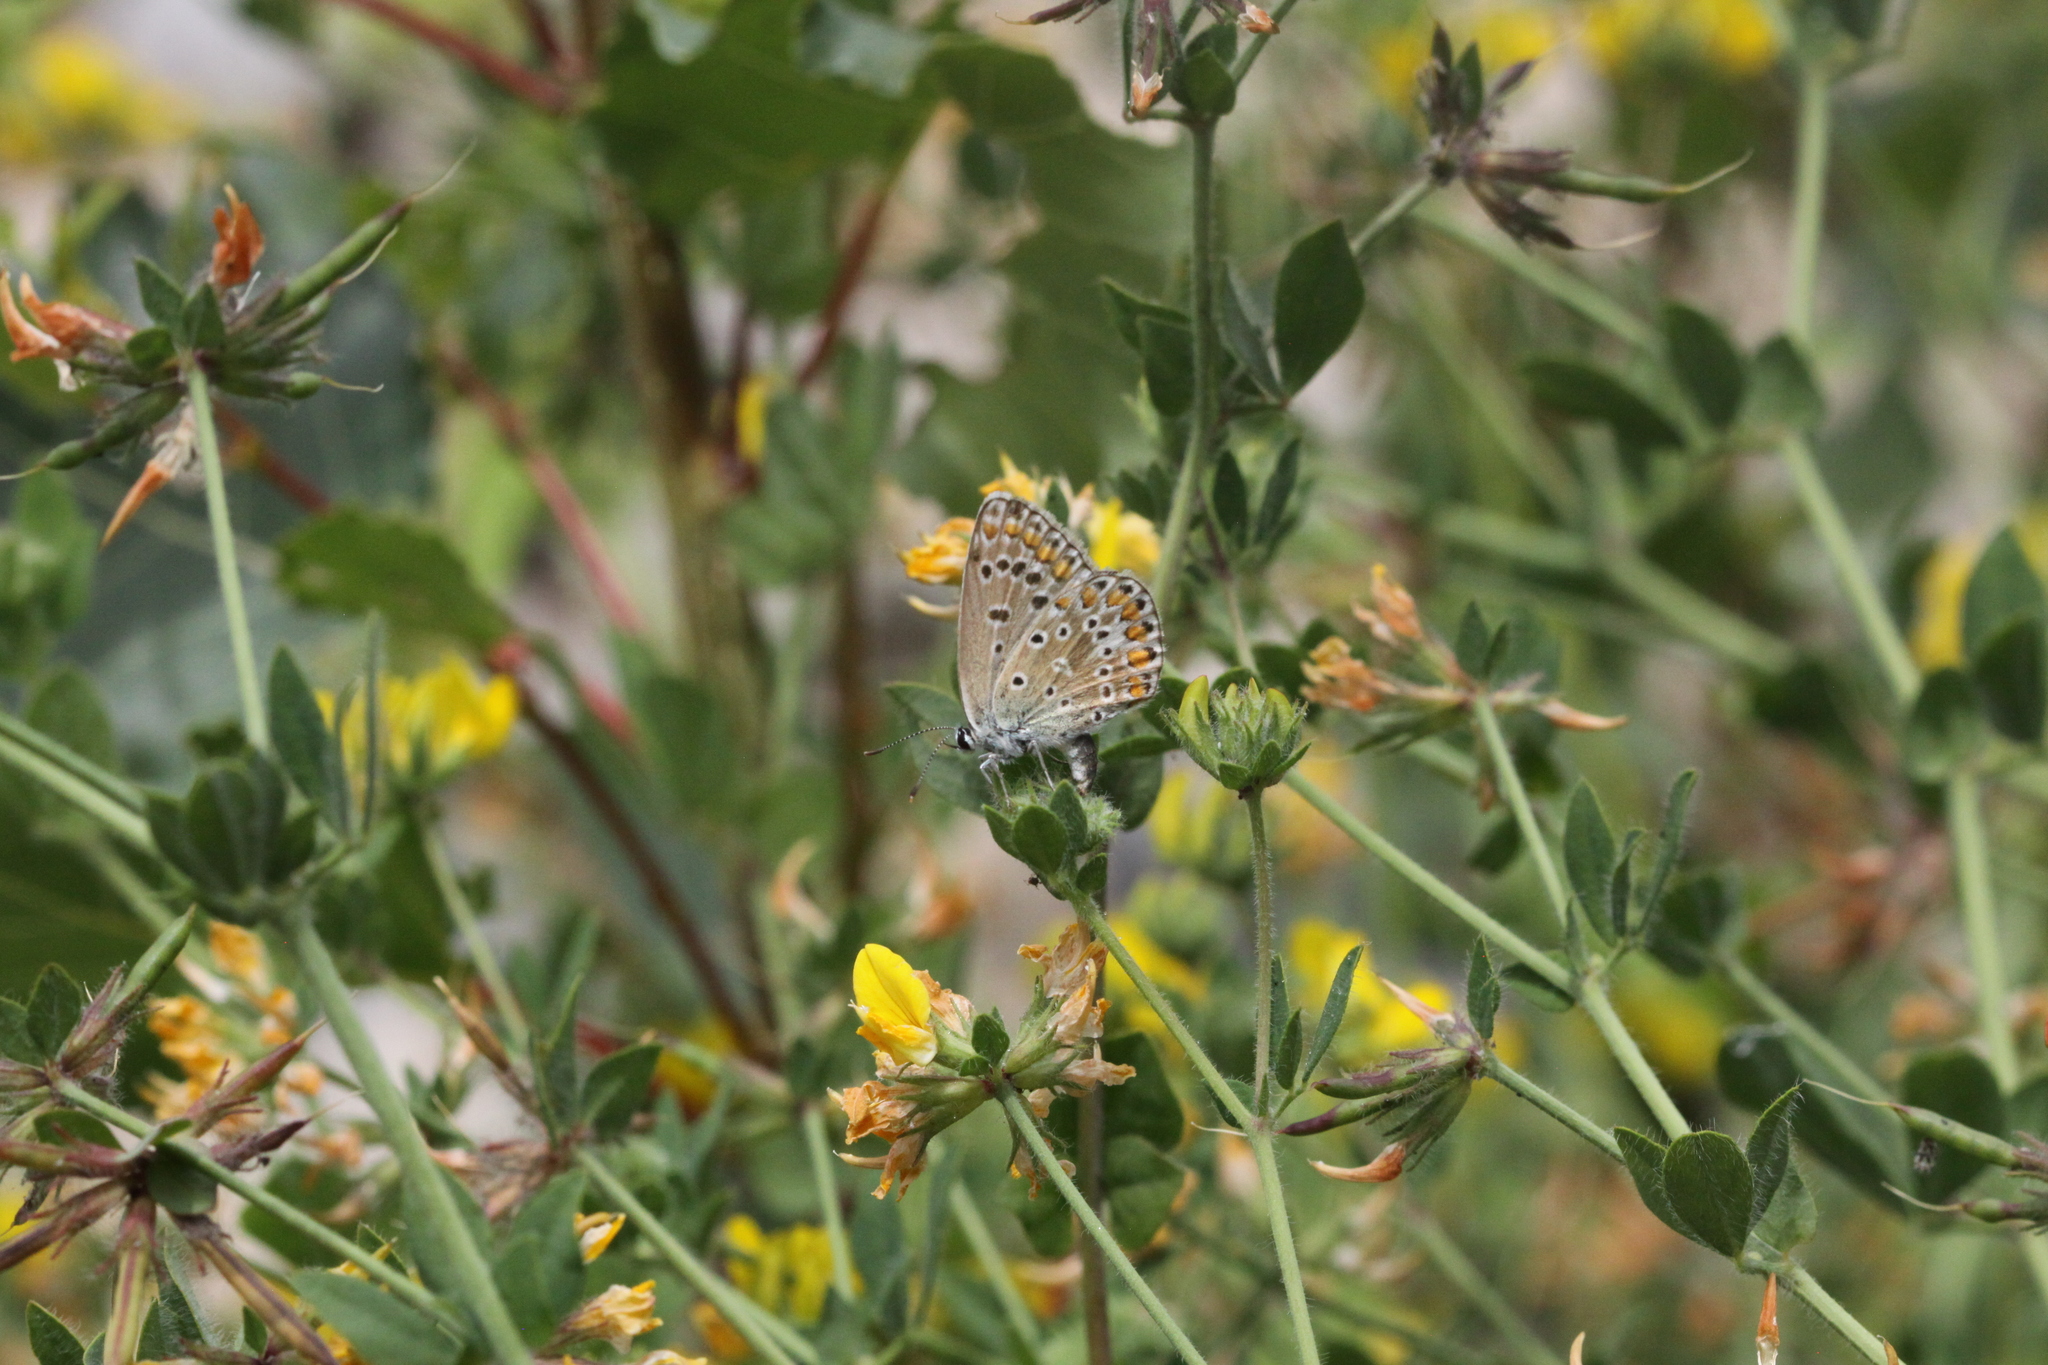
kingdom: Animalia
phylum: Arthropoda
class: Insecta
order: Lepidoptera
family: Lycaenidae
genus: Polyommatus
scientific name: Polyommatus icarus
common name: Common blue
